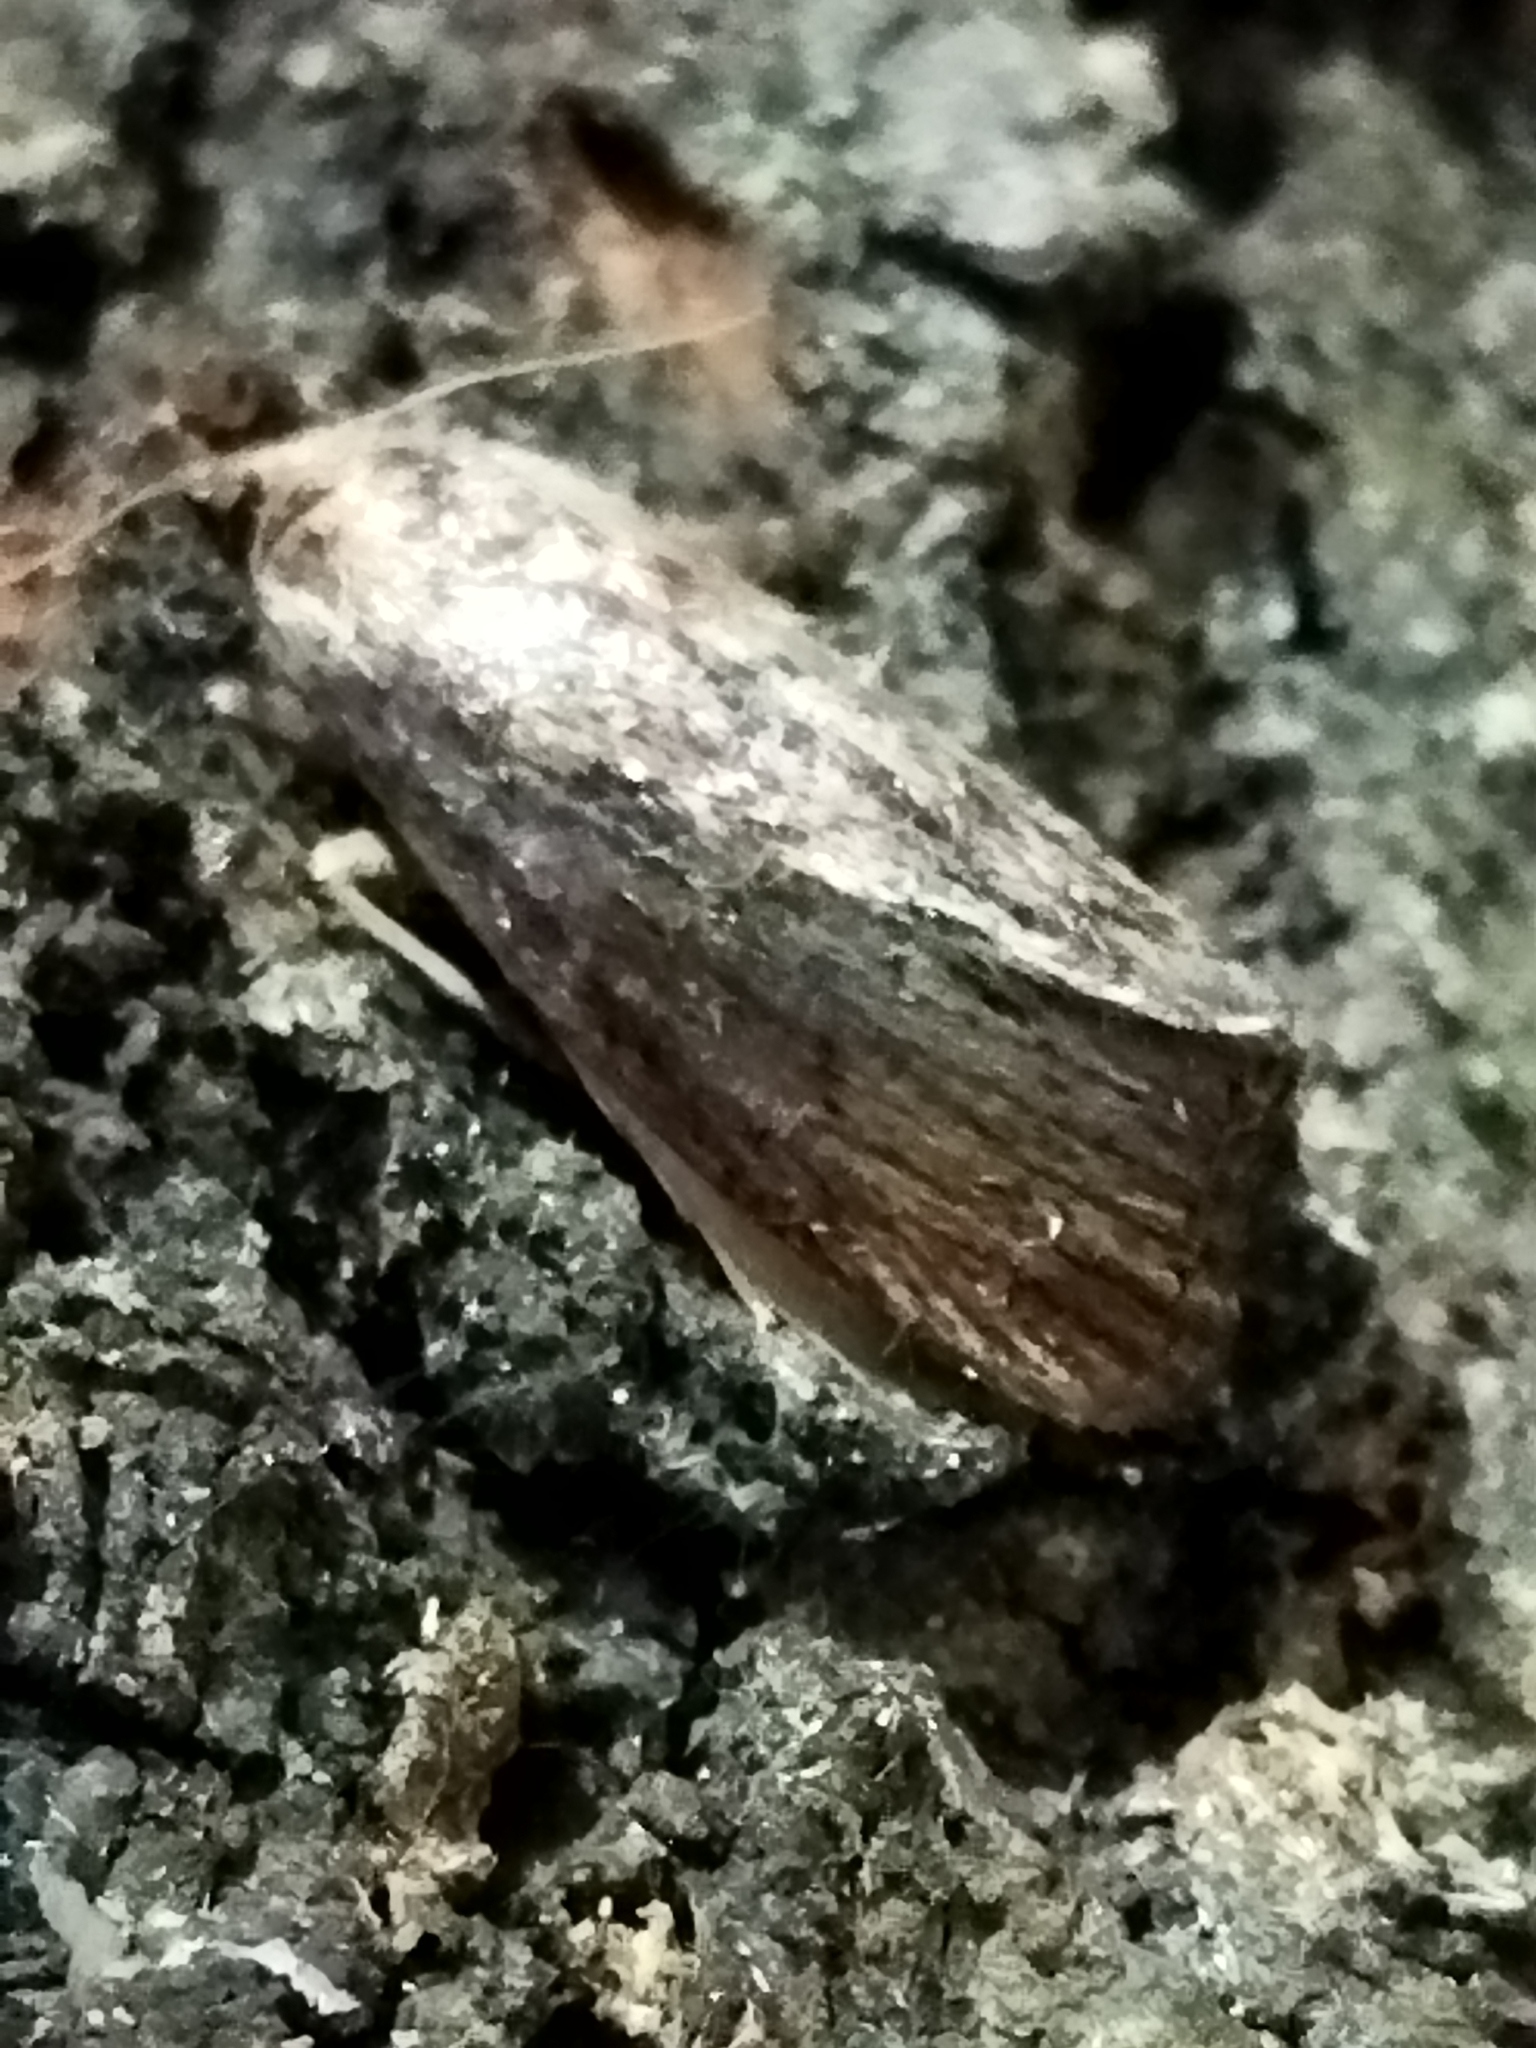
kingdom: Animalia
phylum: Arthropoda
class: Insecta
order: Lepidoptera
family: Pyralidae
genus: Galleria
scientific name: Galleria mellonella
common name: Greater wax moth
